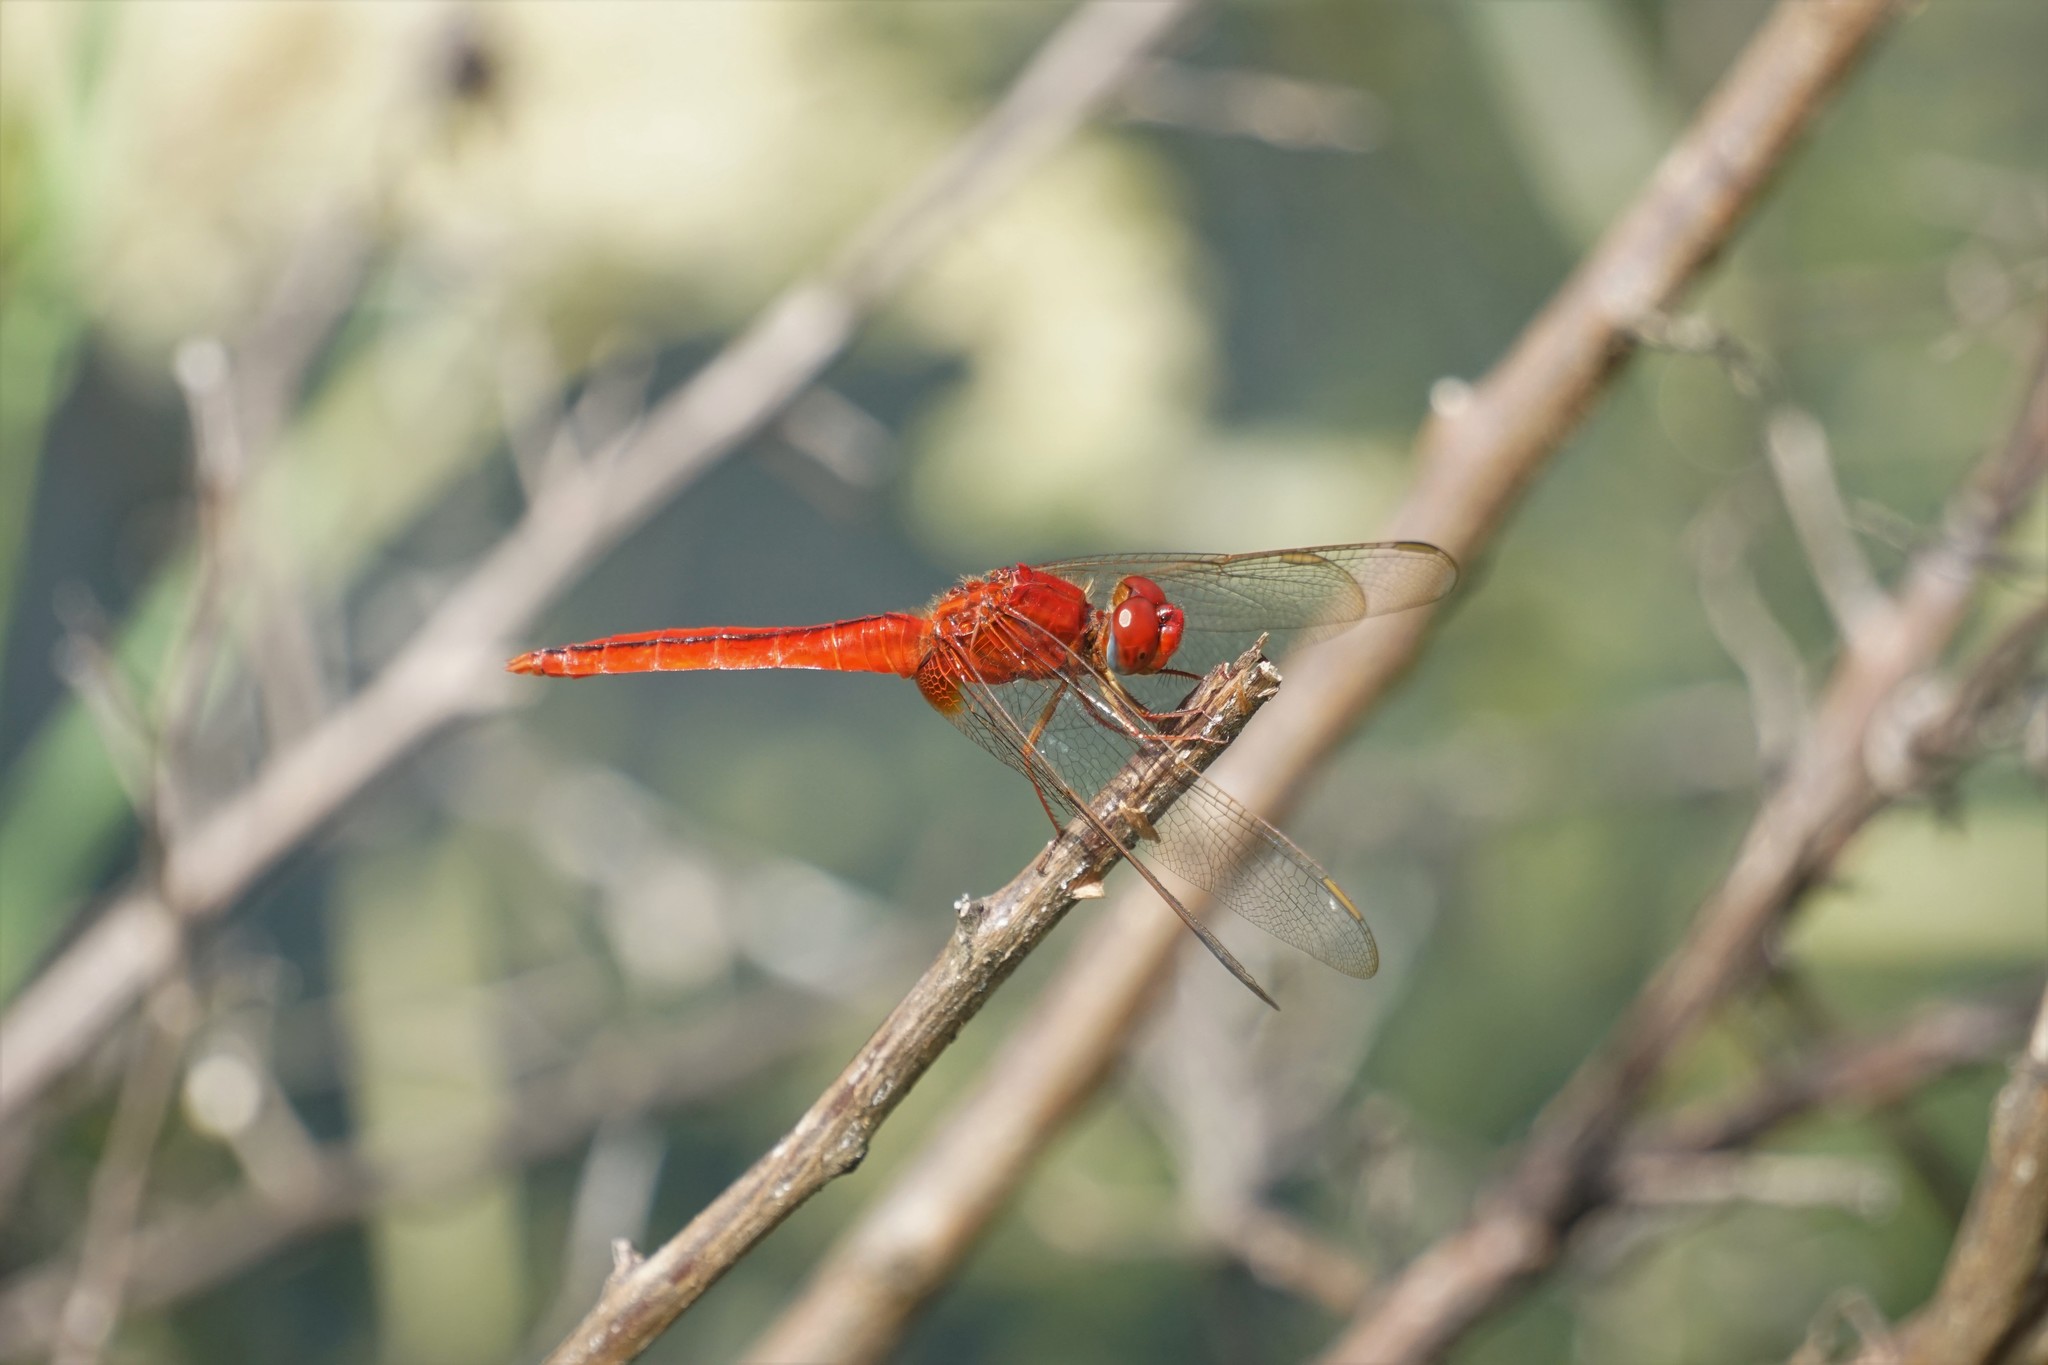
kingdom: Animalia
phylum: Arthropoda
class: Insecta
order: Odonata
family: Libellulidae
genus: Crocothemis
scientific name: Crocothemis servilia
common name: Scarlet skimmer
